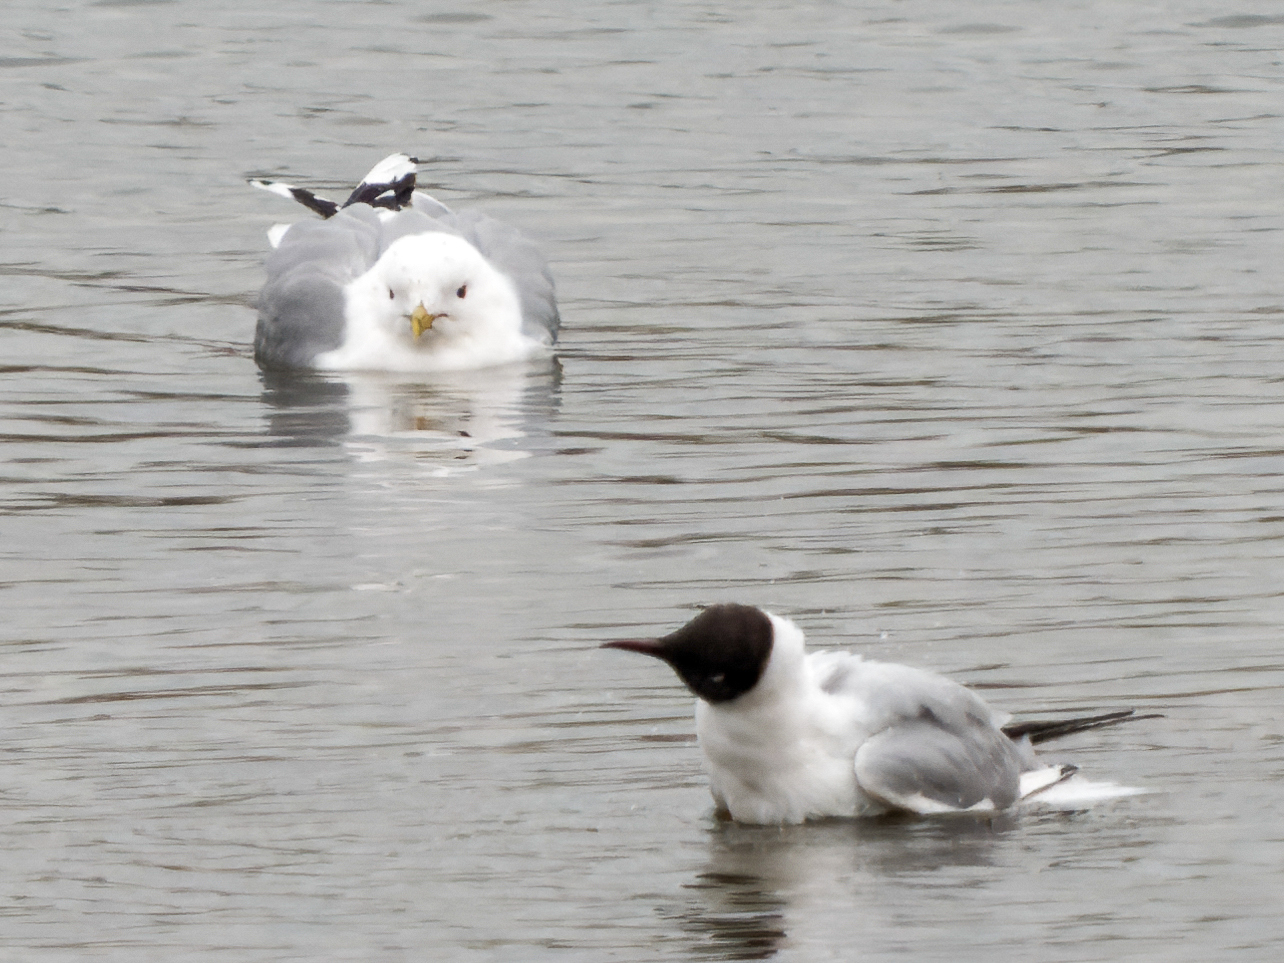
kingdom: Animalia
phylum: Chordata
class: Aves
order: Charadriiformes
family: Laridae
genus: Larus
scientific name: Larus canus
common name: Mew gull
